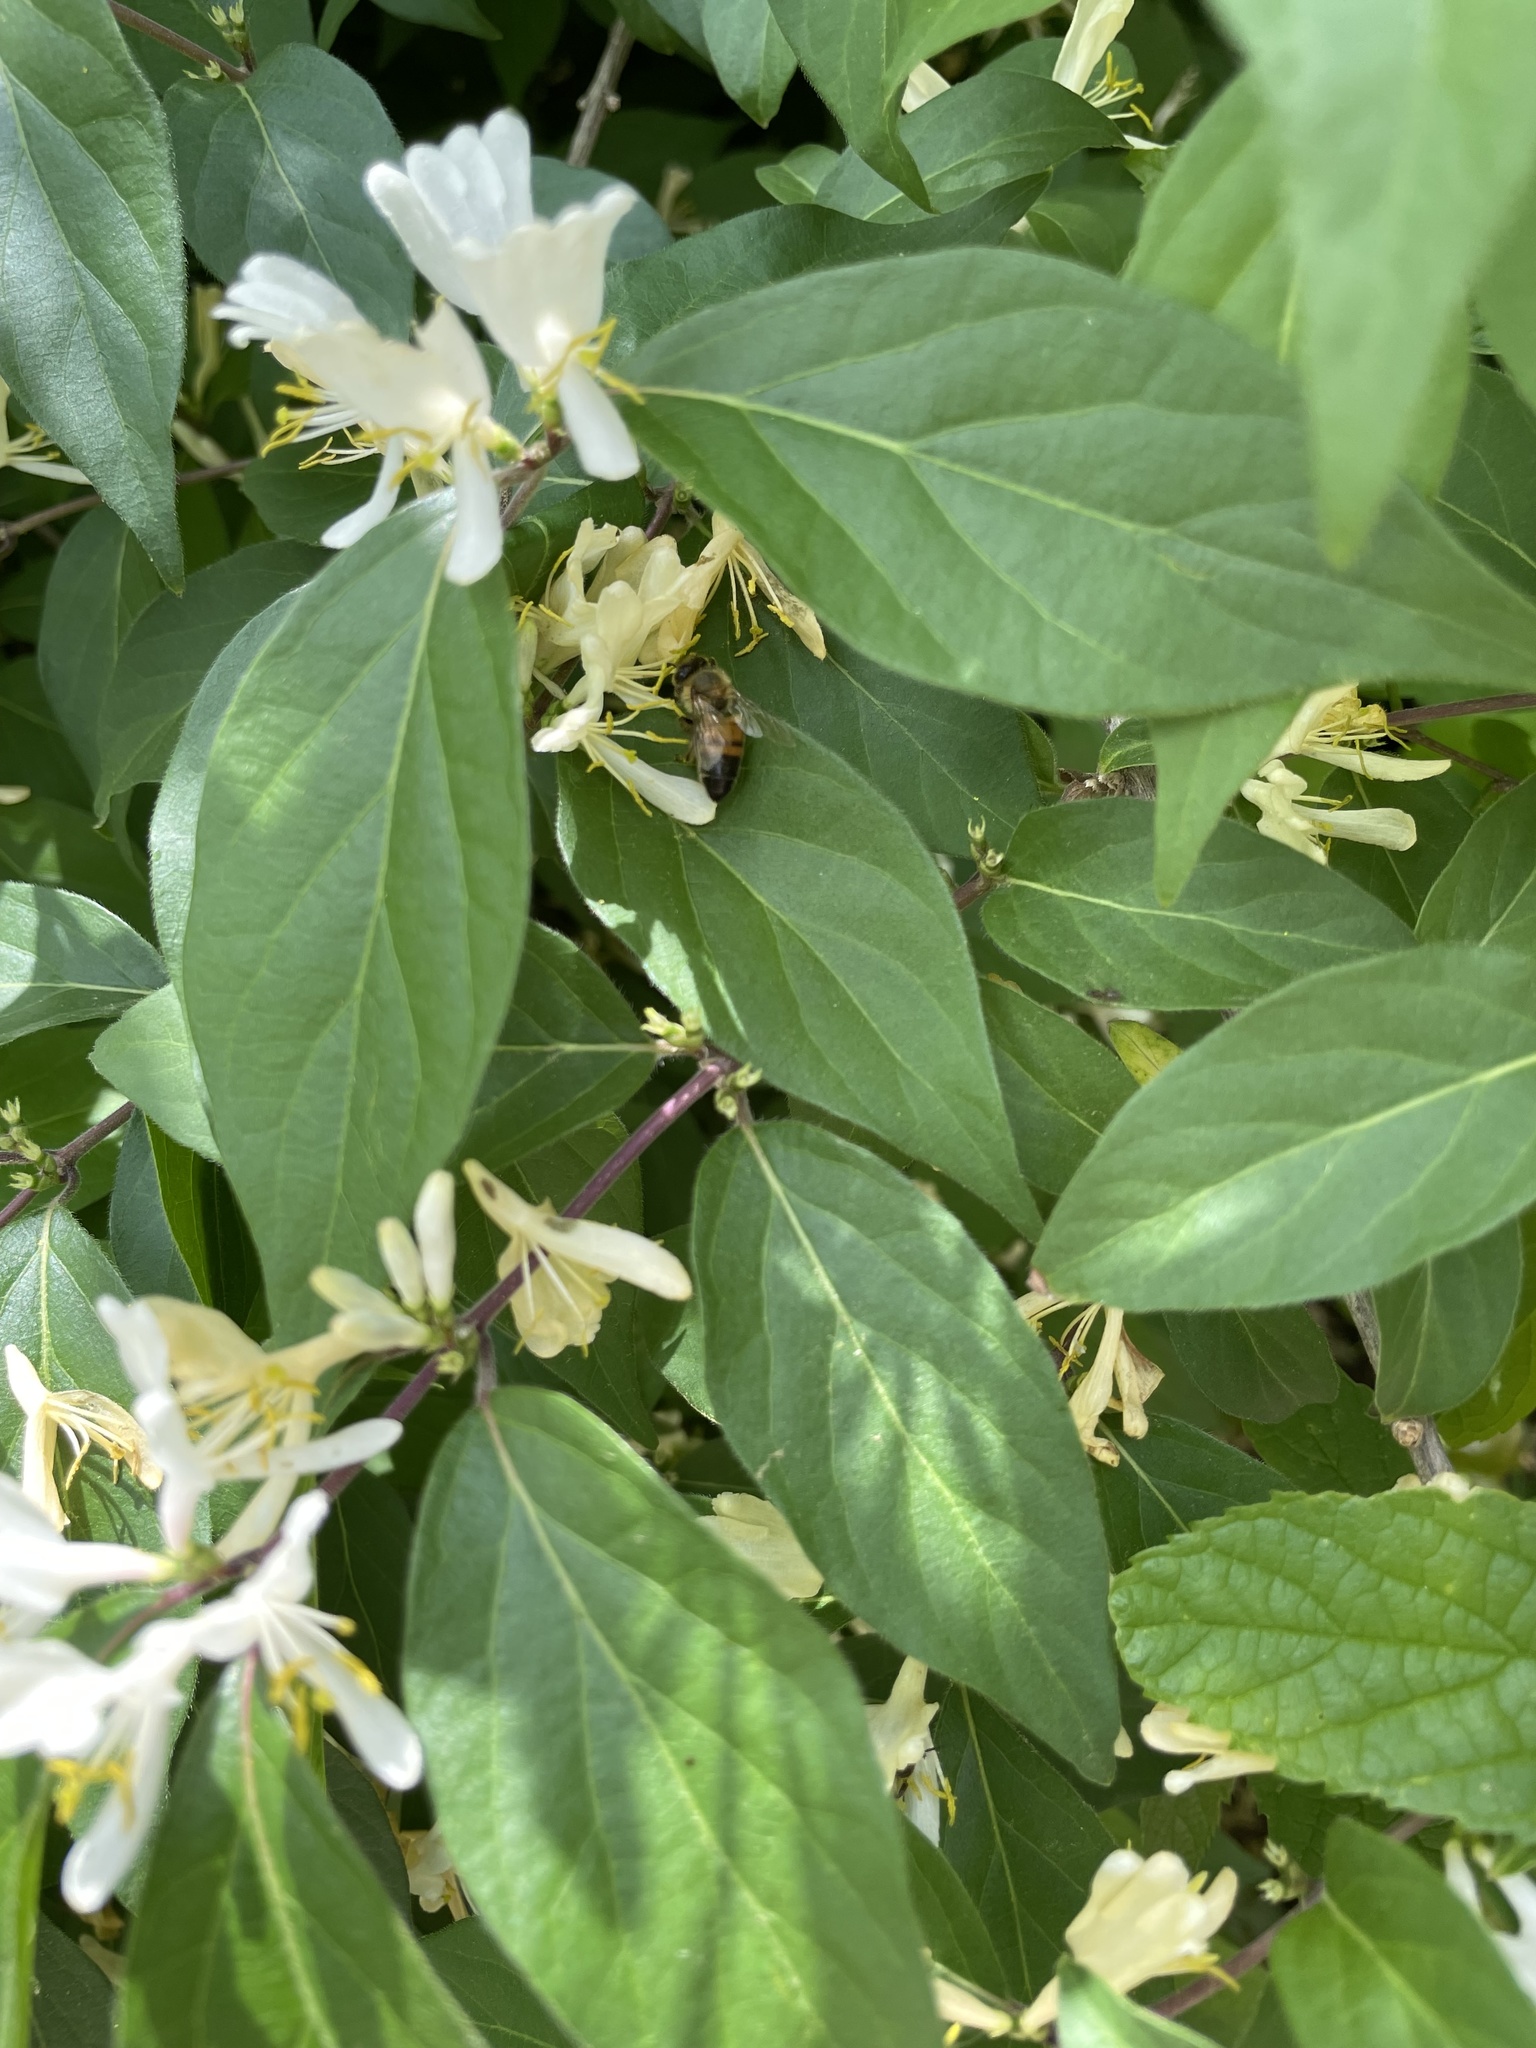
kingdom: Animalia
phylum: Arthropoda
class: Insecta
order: Hymenoptera
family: Apidae
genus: Apis
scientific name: Apis mellifera
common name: Honey bee
